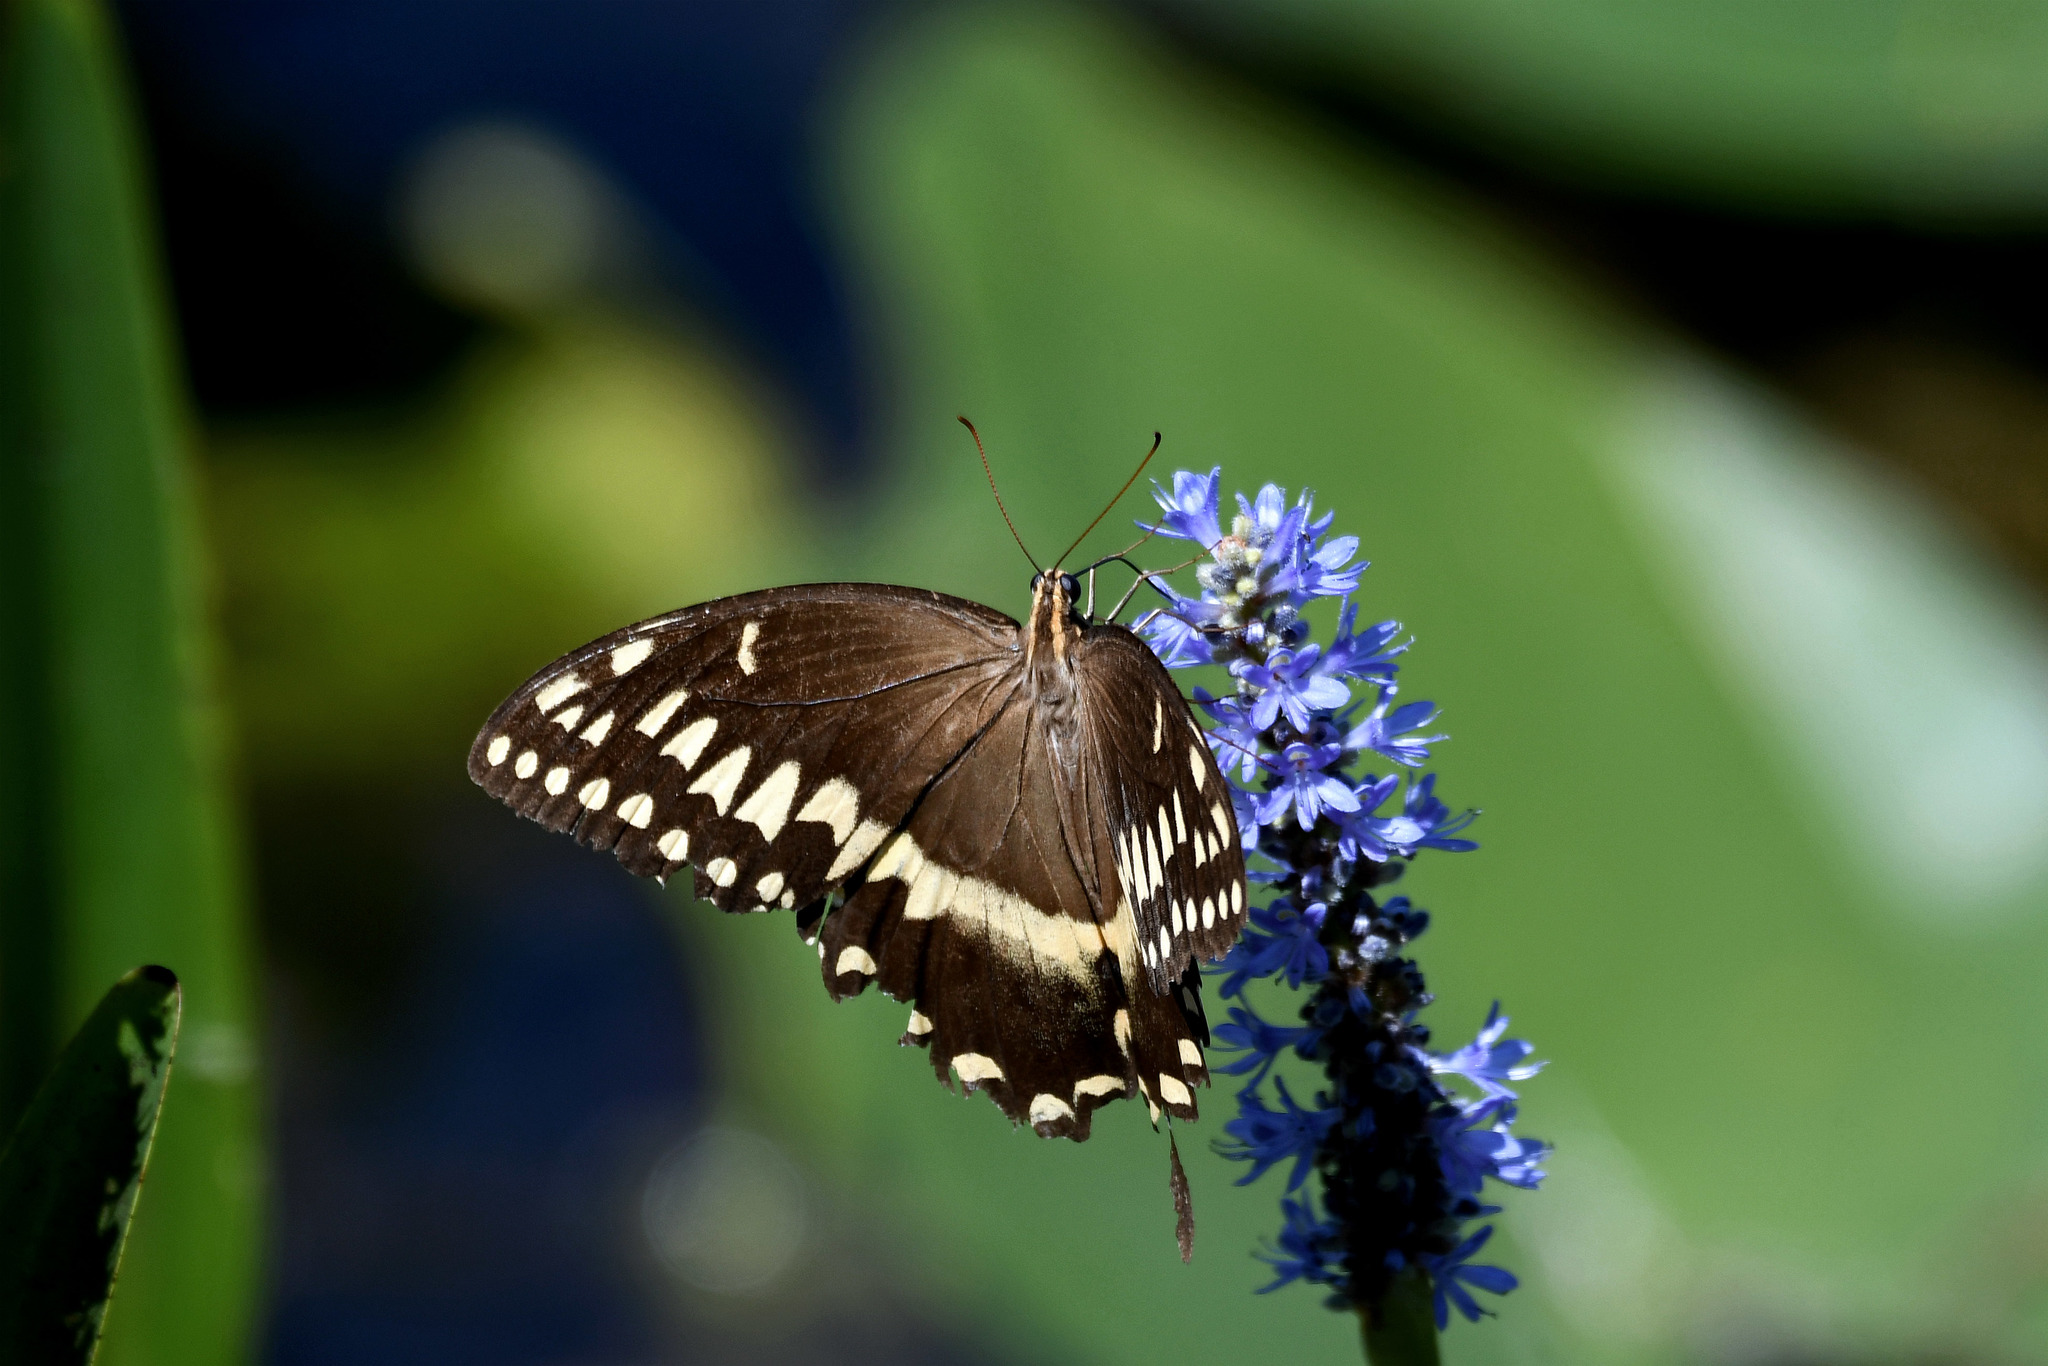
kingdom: Animalia
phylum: Arthropoda
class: Insecta
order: Lepidoptera
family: Papilionidae
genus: Papilio
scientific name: Papilio palamedes
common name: Palamedes swallowtail
